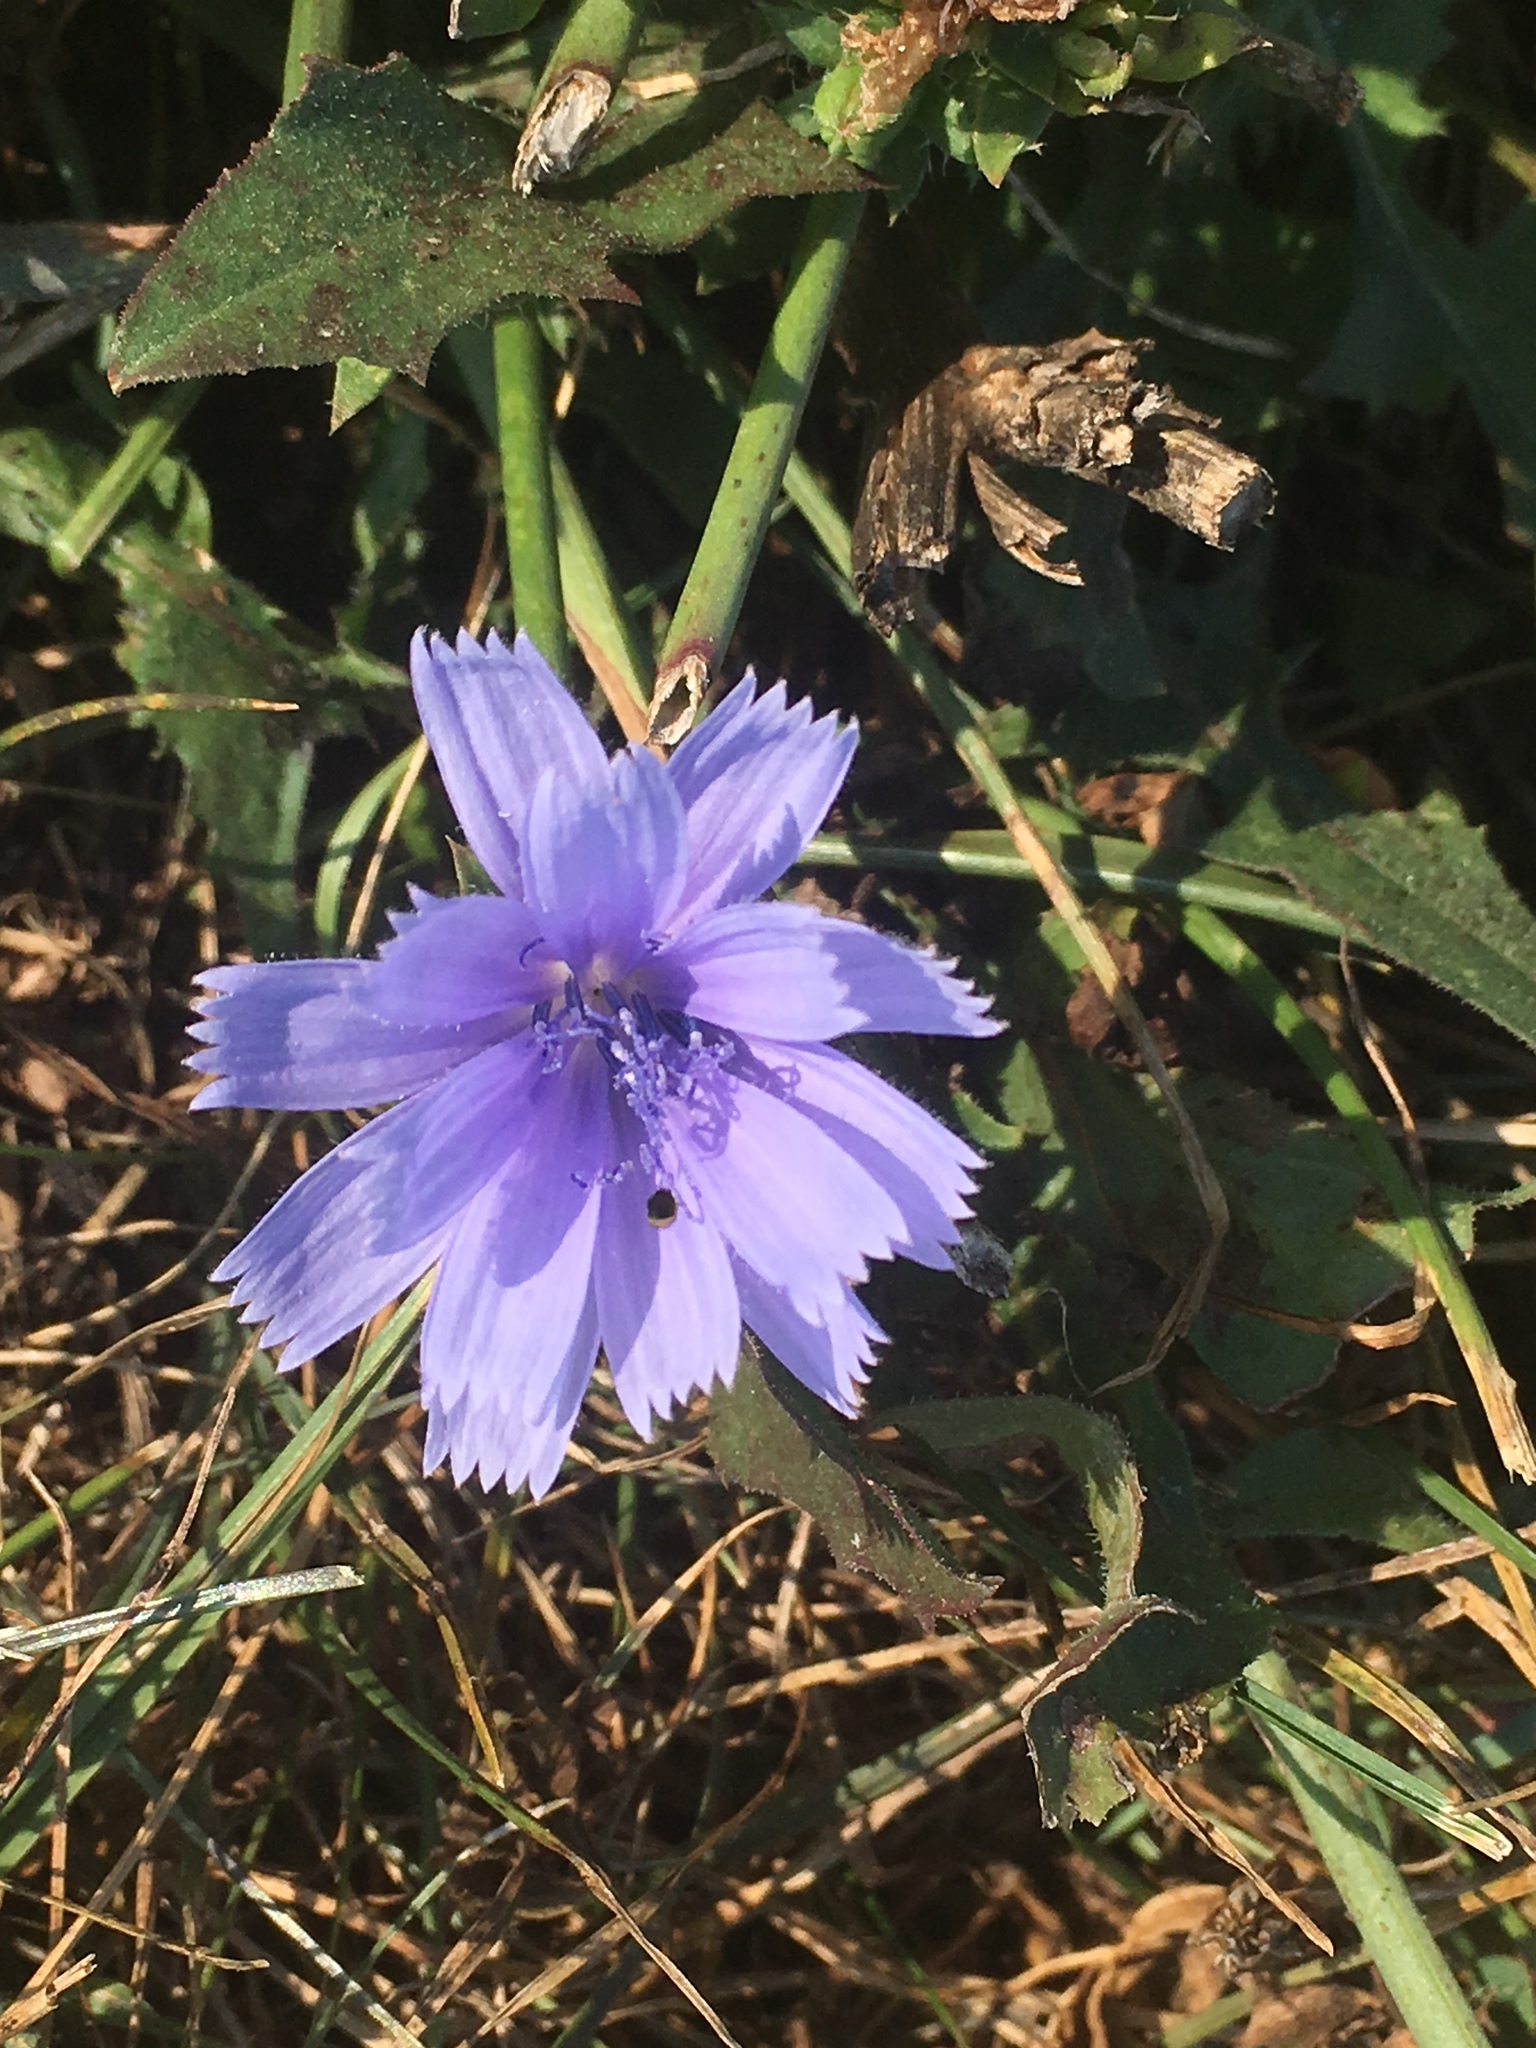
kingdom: Plantae
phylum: Tracheophyta
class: Magnoliopsida
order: Asterales
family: Asteraceae
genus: Cichorium
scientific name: Cichorium intybus
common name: Chicory
